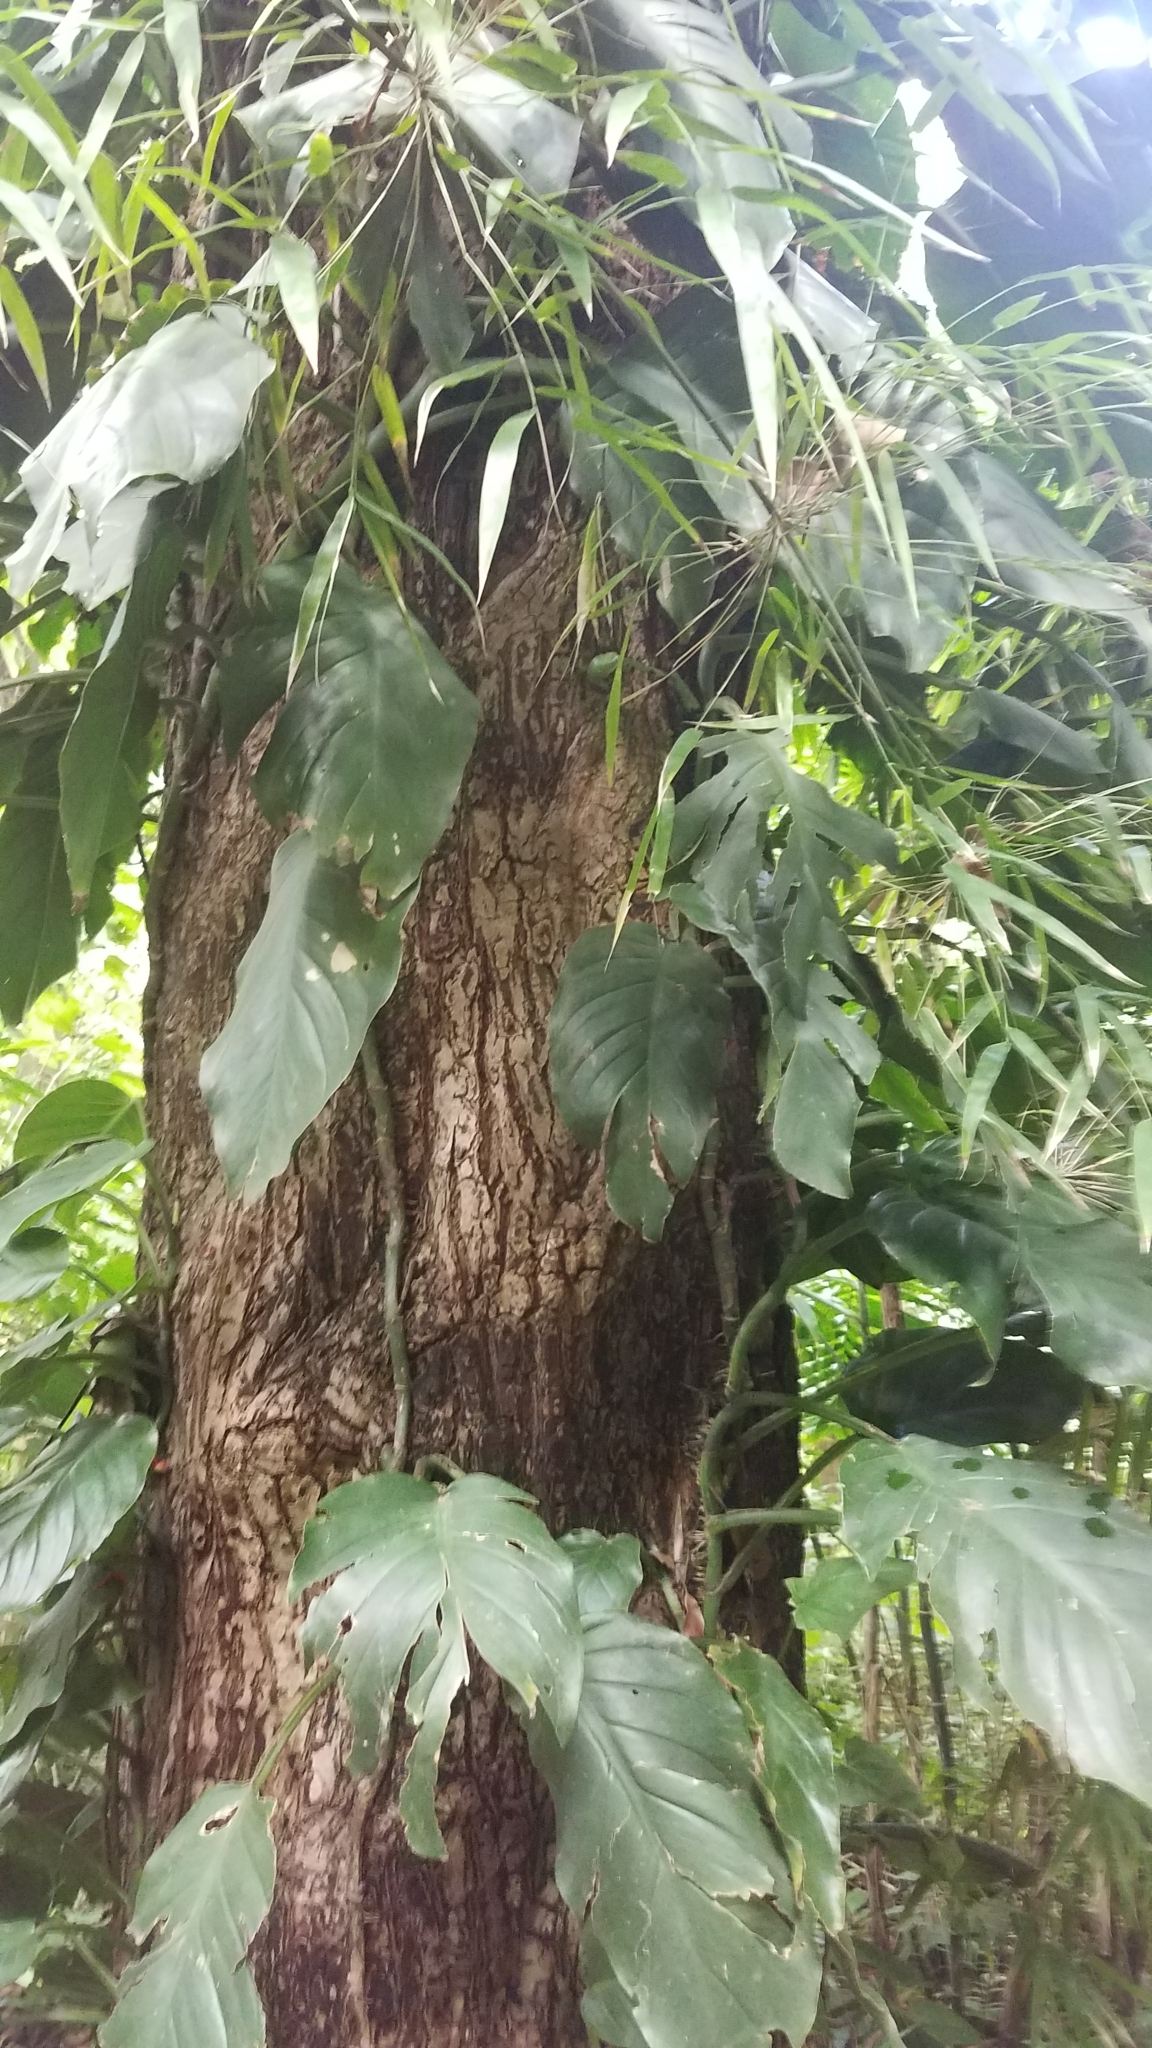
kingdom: Plantae
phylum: Tracheophyta
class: Liliopsida
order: Alismatales
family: Araceae
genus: Monstera
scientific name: Monstera acuminata
